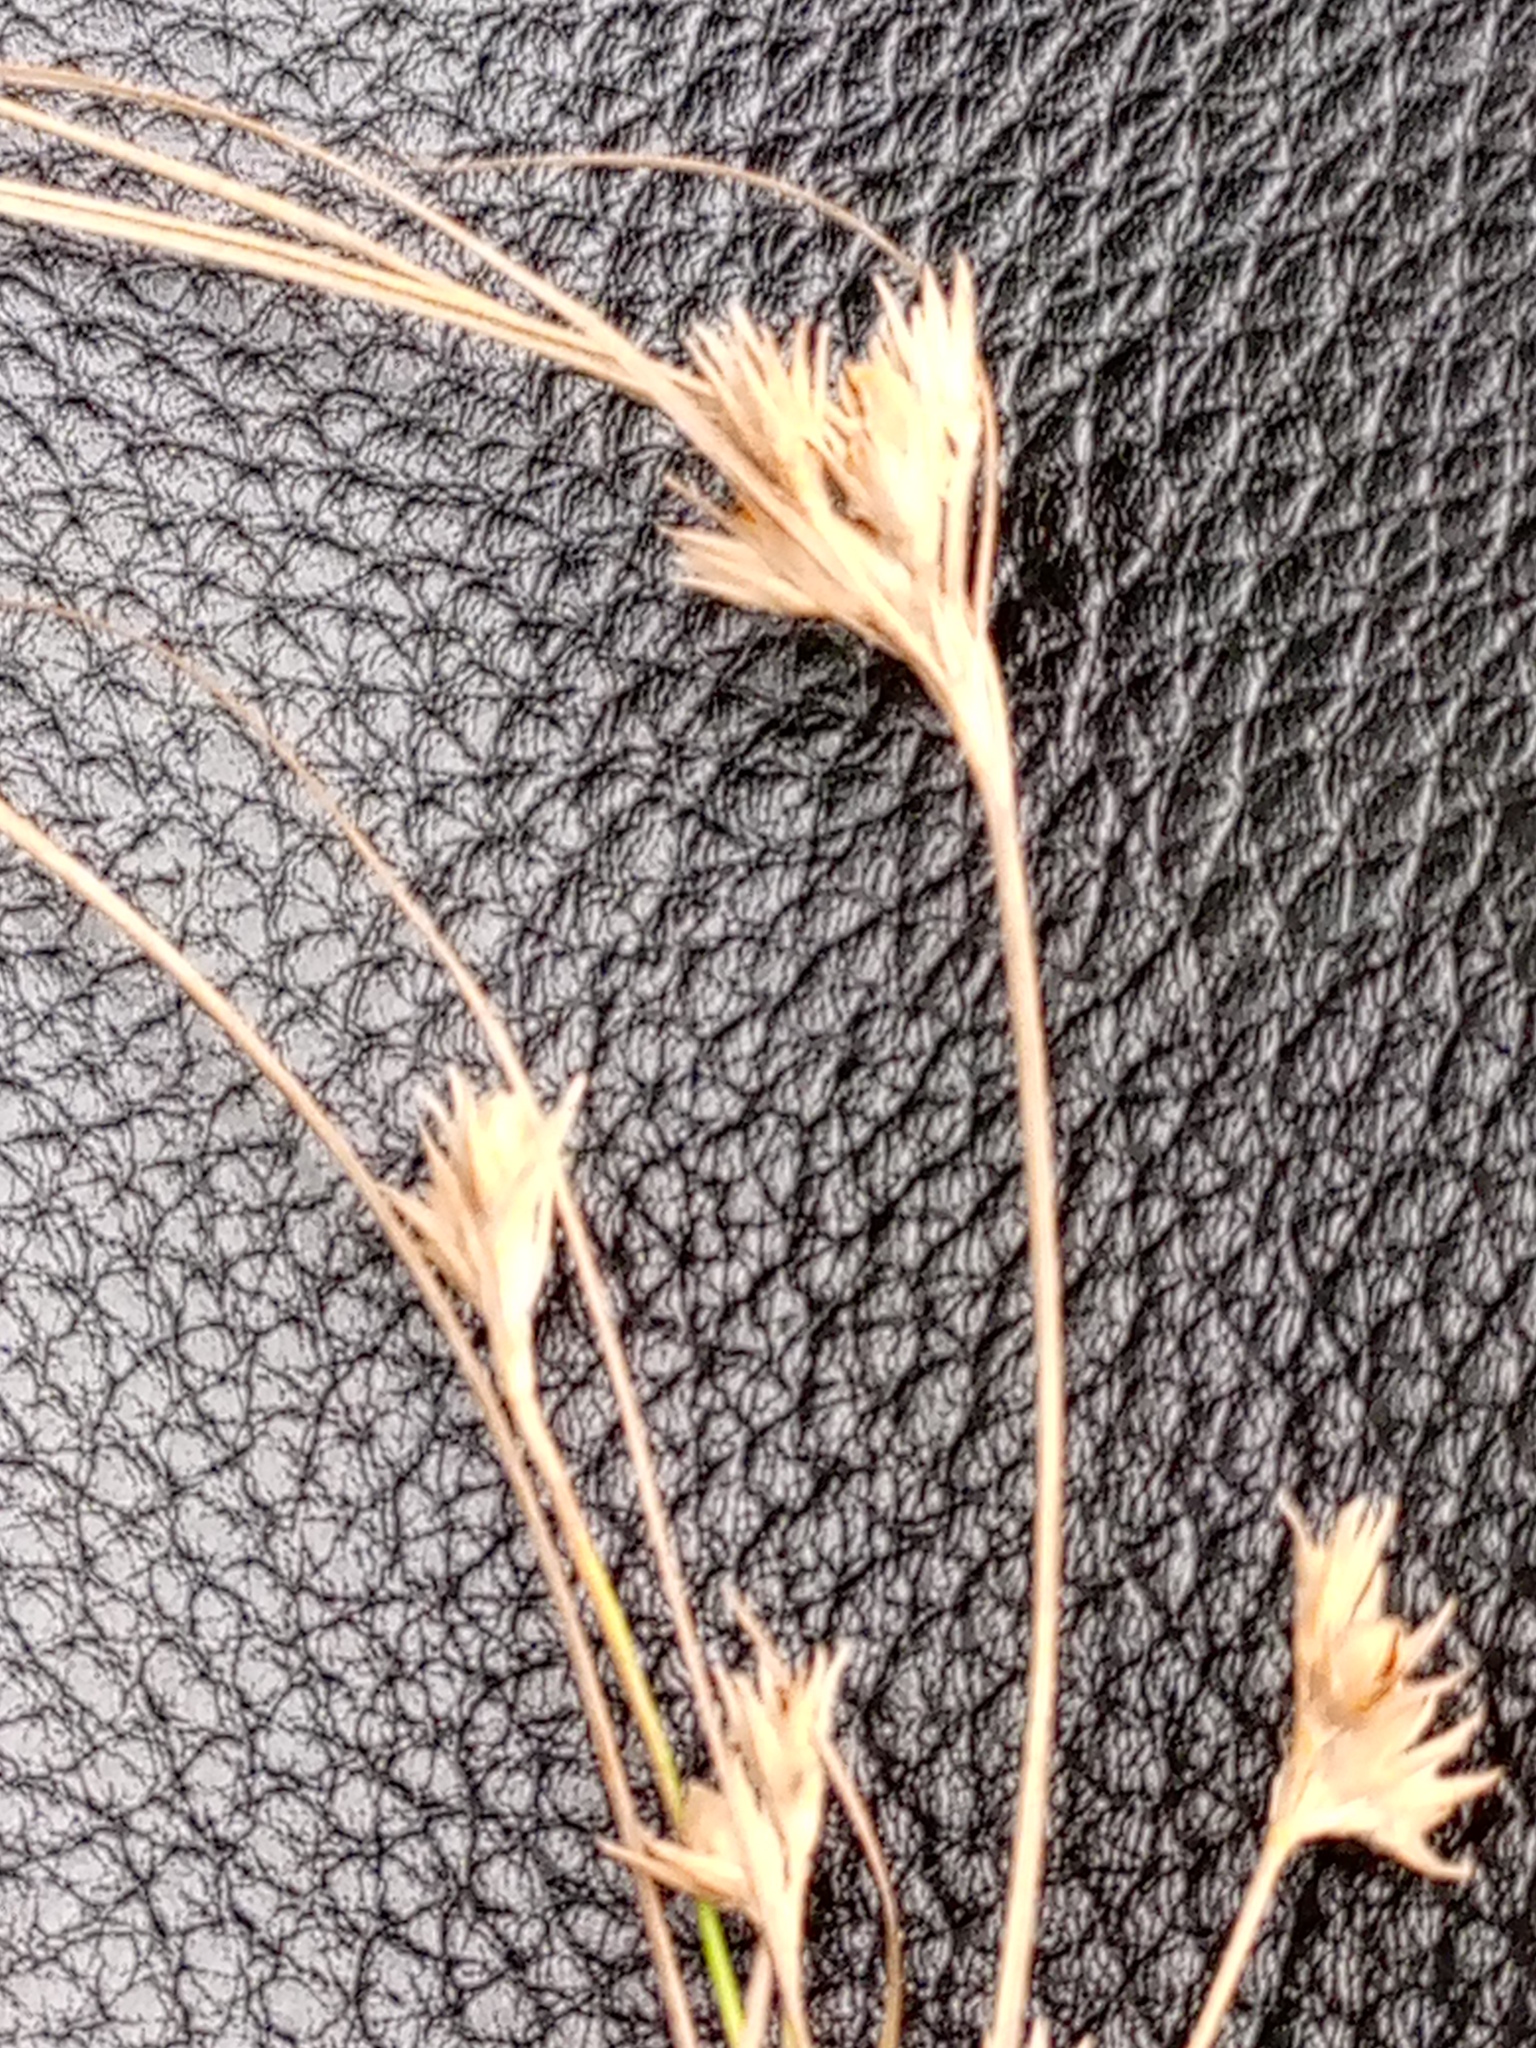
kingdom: Plantae
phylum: Tracheophyta
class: Liliopsida
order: Poales
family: Juncaceae
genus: Juncus
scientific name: Juncus tenuis
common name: Slender rush
